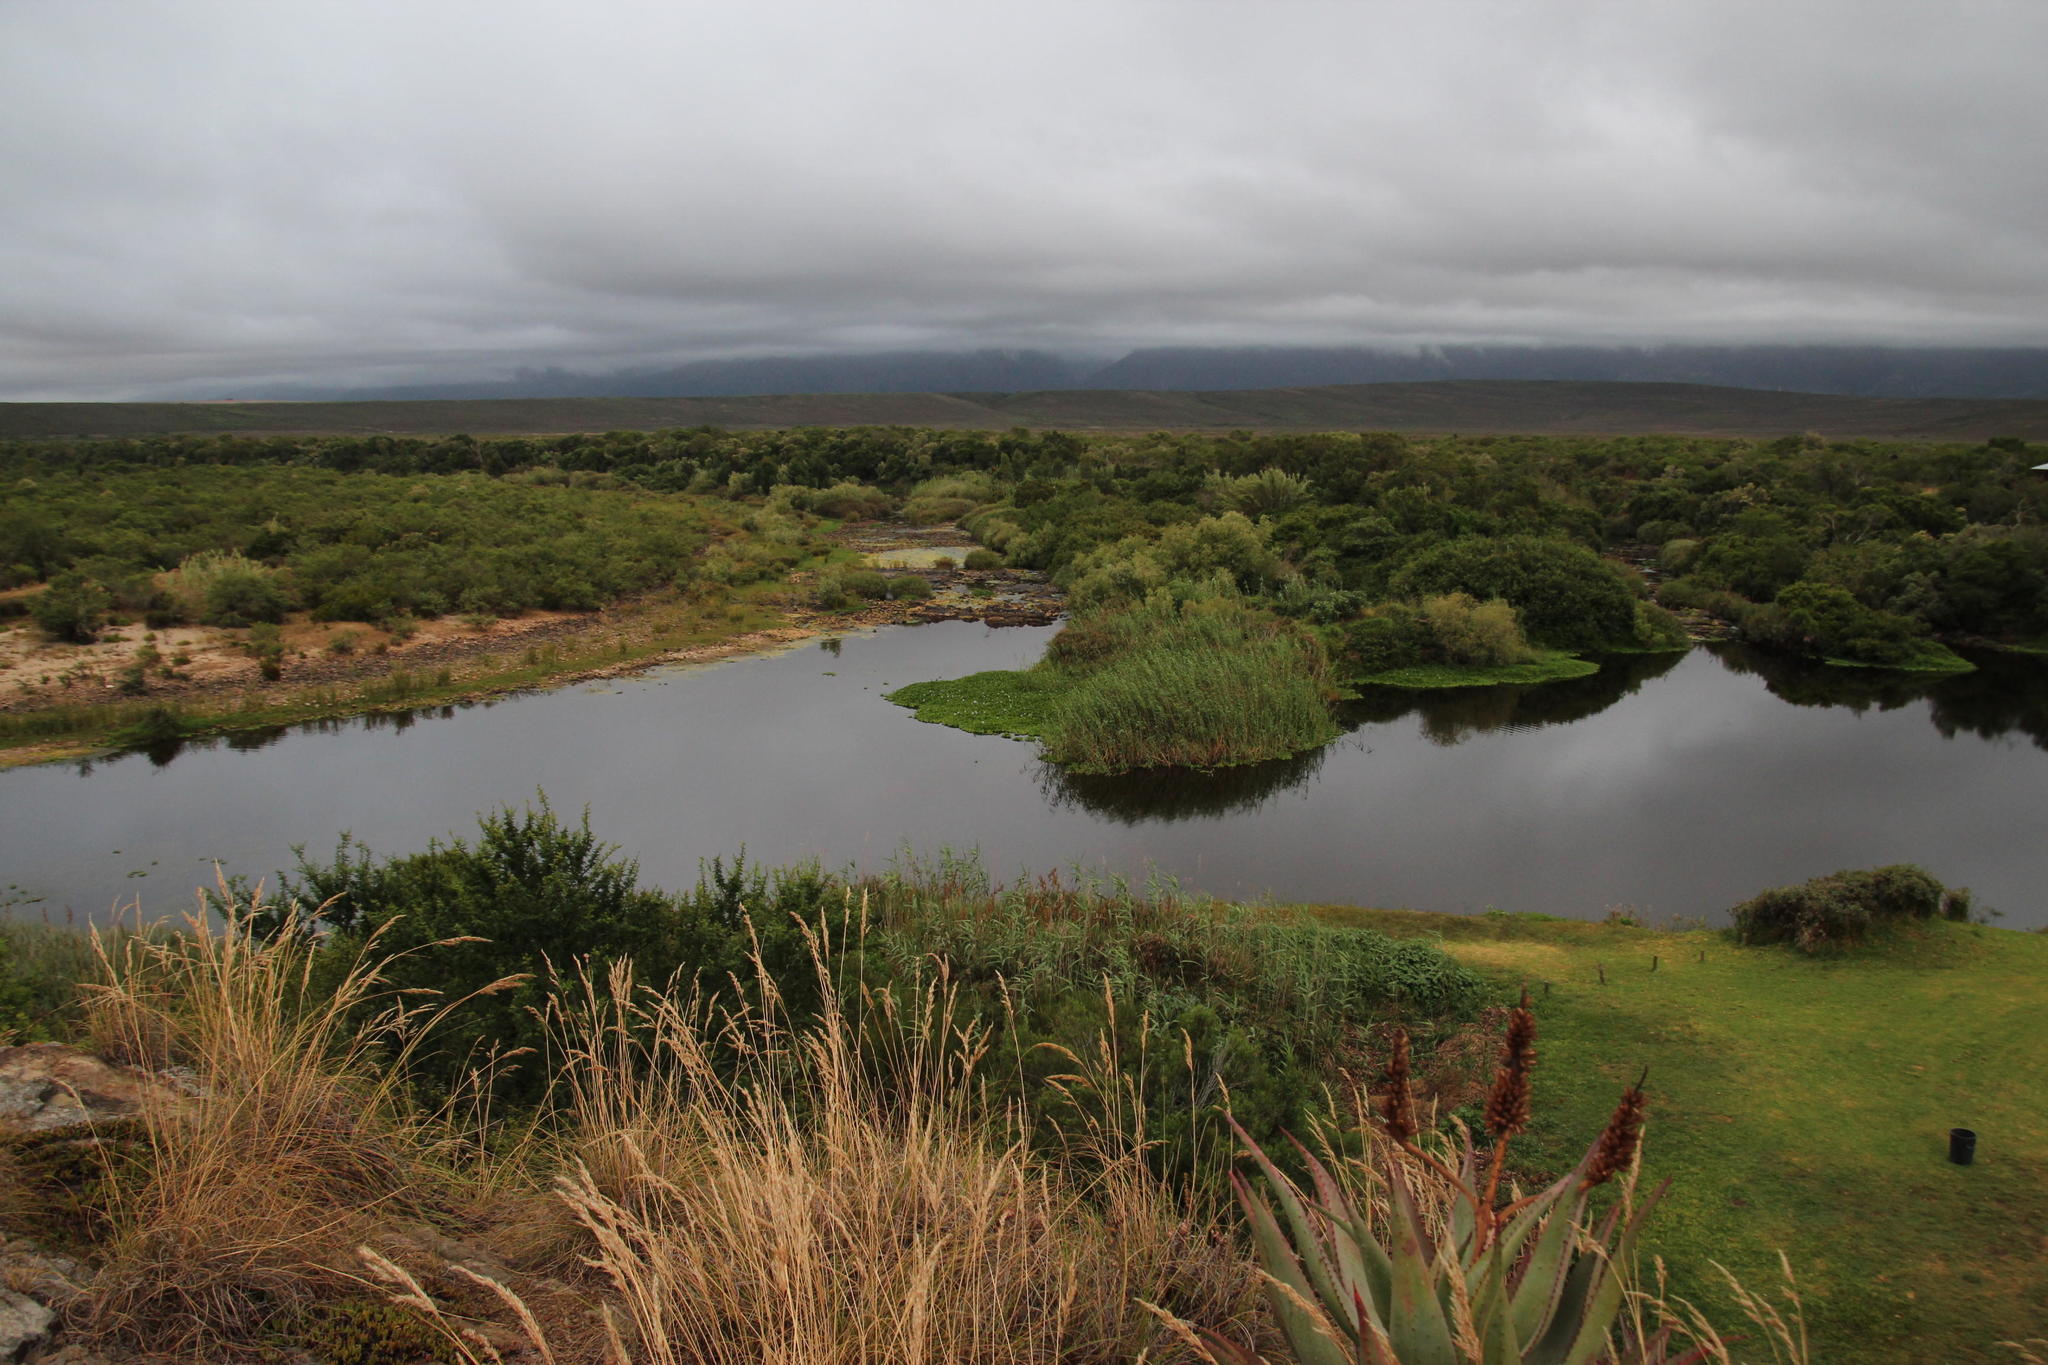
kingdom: Plantae
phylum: Tracheophyta
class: Liliopsida
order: Commelinales
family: Pontederiaceae
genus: Pontederia
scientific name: Pontederia crassipes
